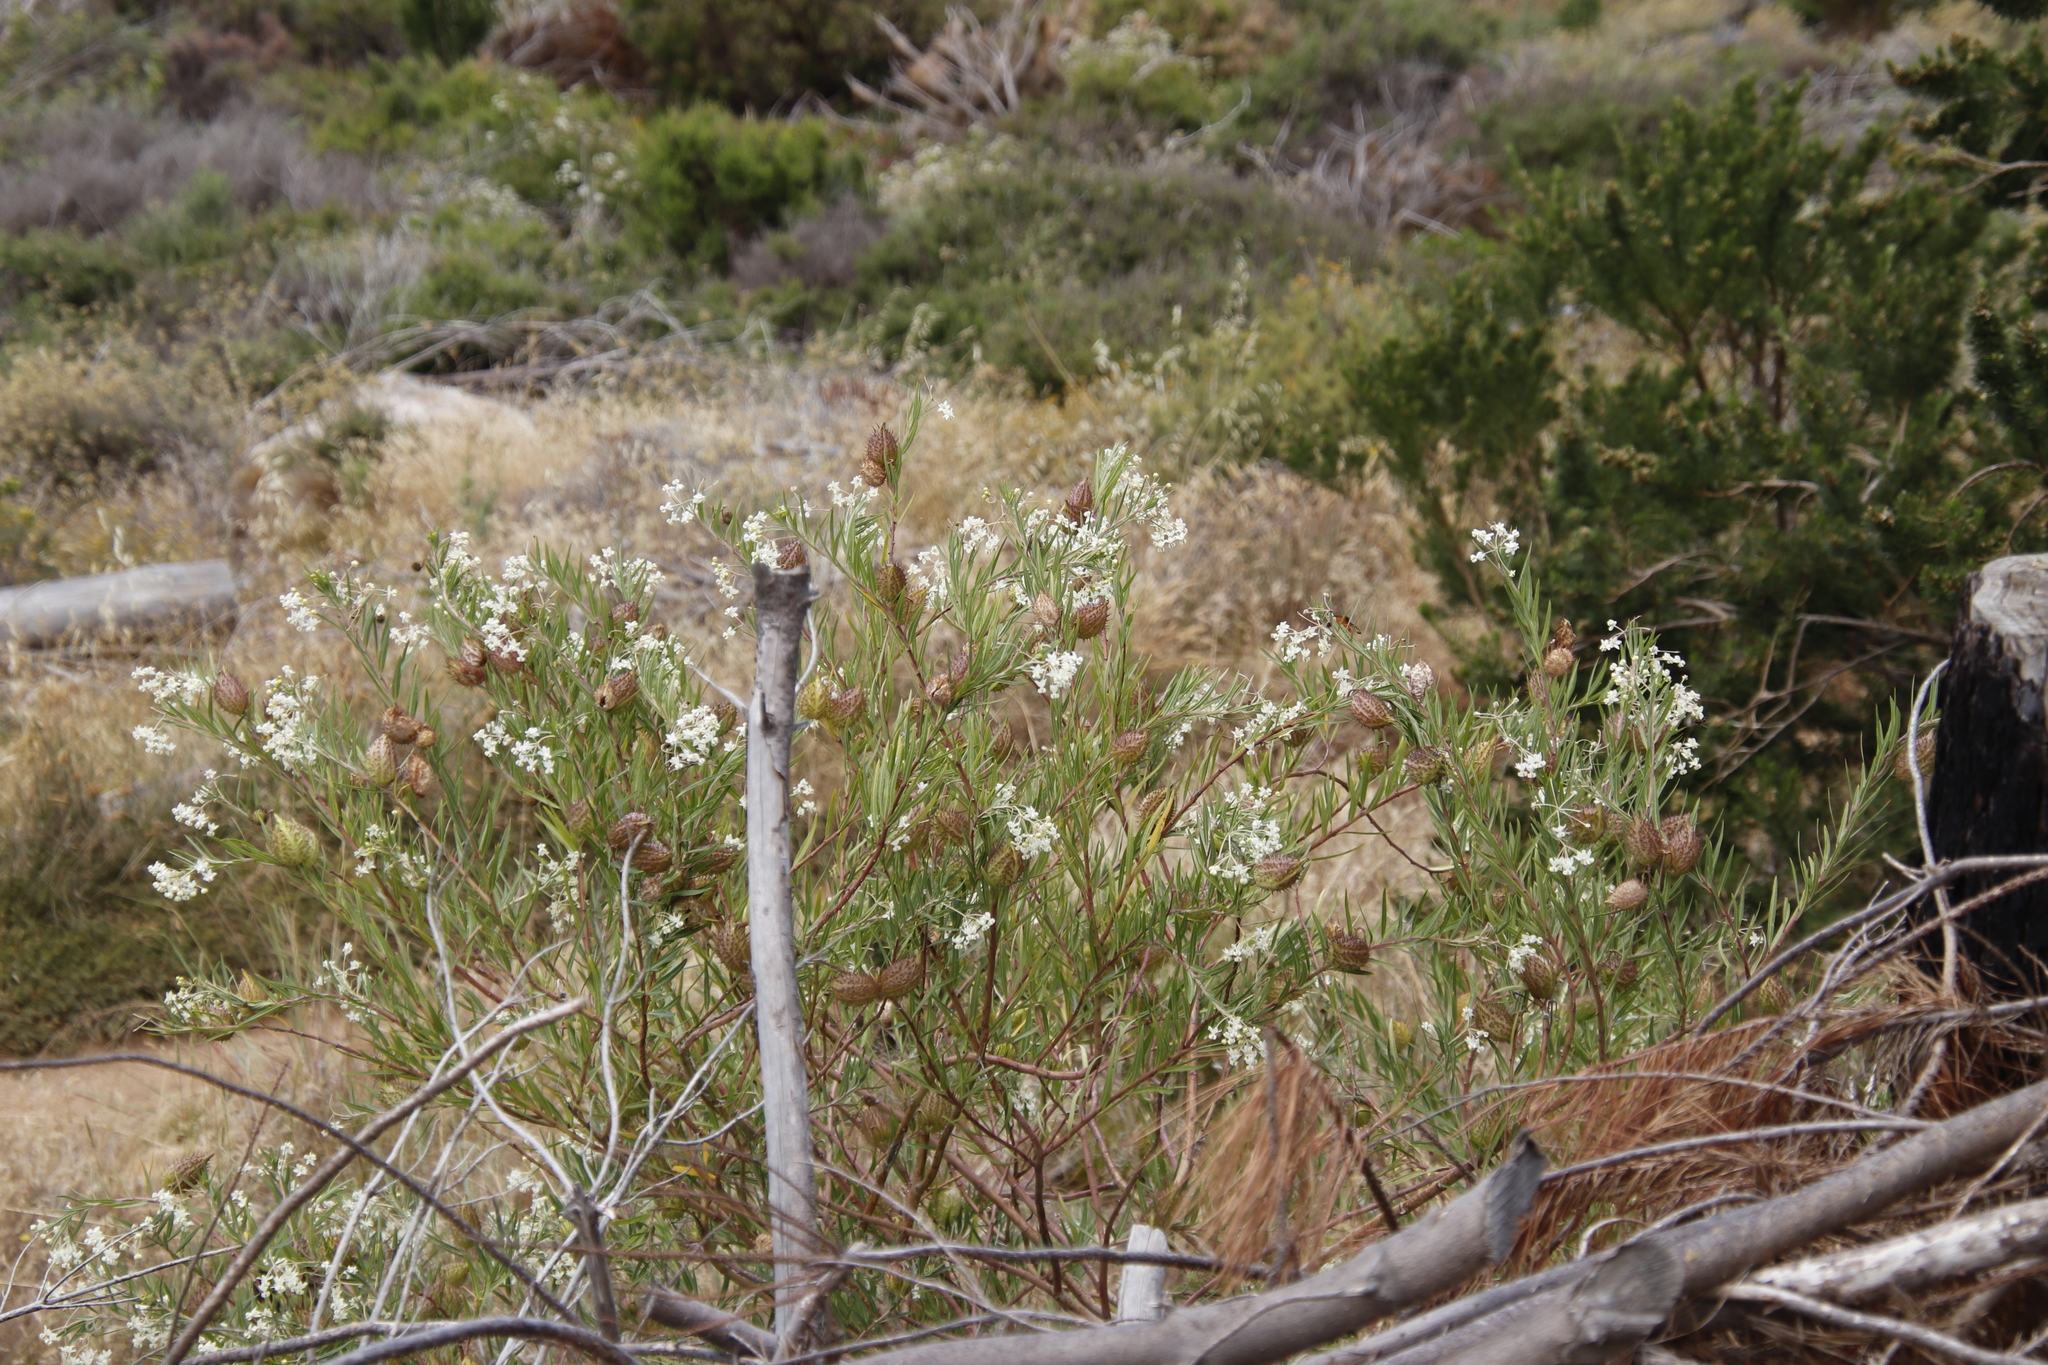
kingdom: Plantae
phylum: Tracheophyta
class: Magnoliopsida
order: Gentianales
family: Apocynaceae
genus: Gomphocarpus
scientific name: Gomphocarpus fruticosus
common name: Milkweed
